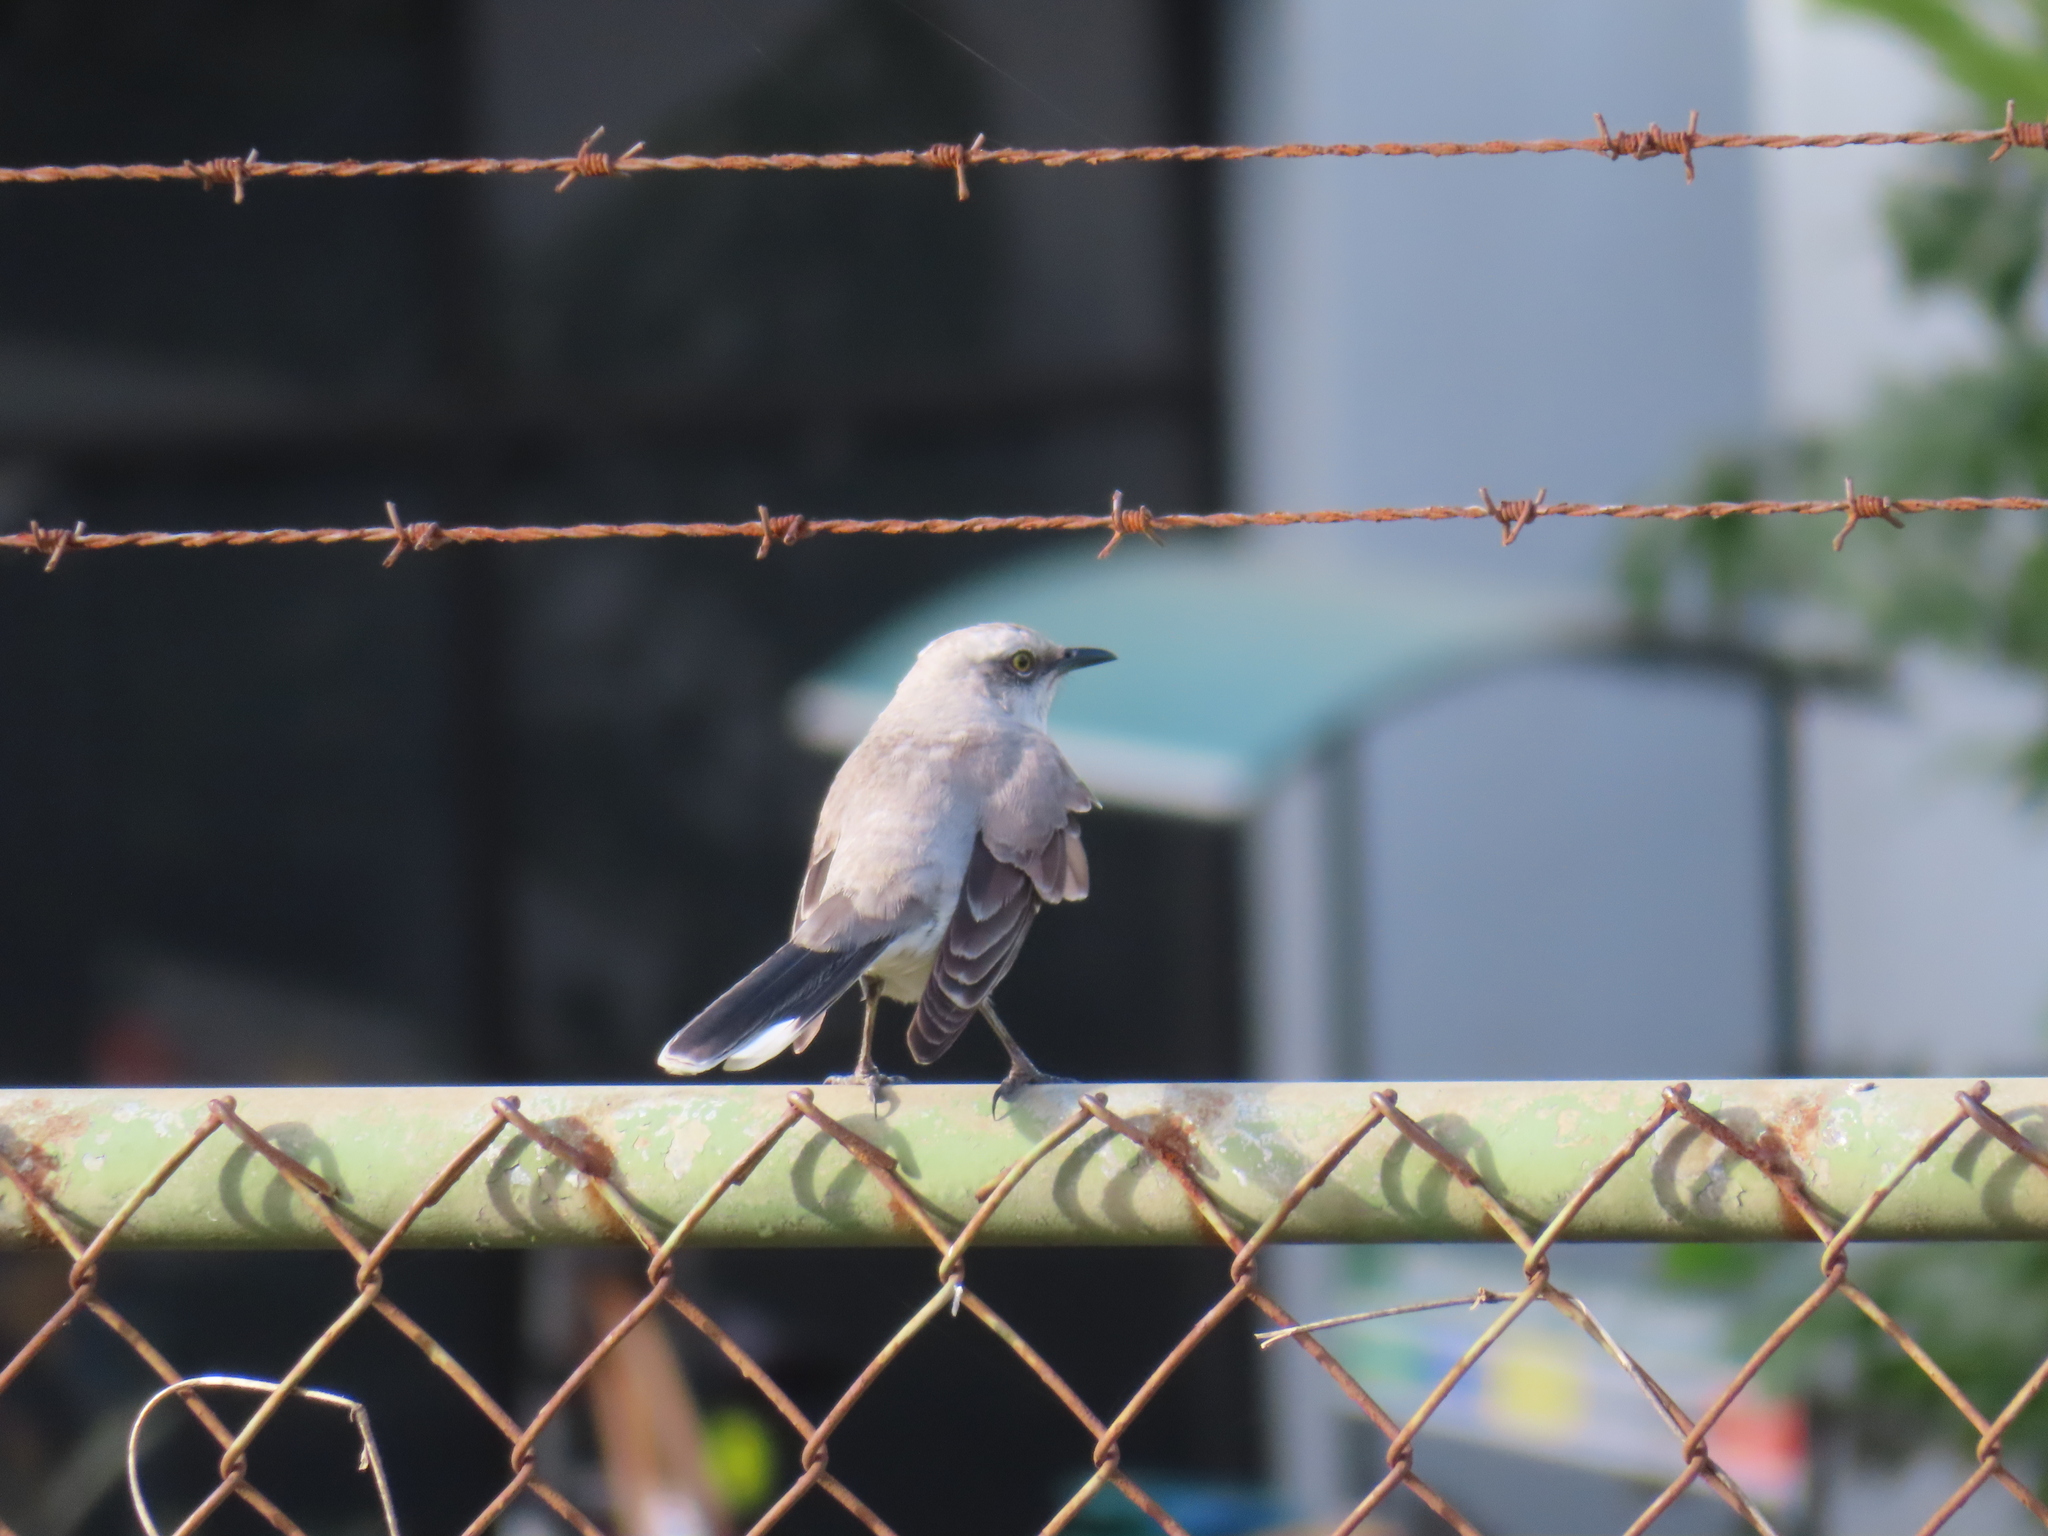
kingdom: Animalia
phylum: Chordata
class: Aves
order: Passeriformes
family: Mimidae
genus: Mimus
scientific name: Mimus gilvus
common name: Tropical mockingbird
